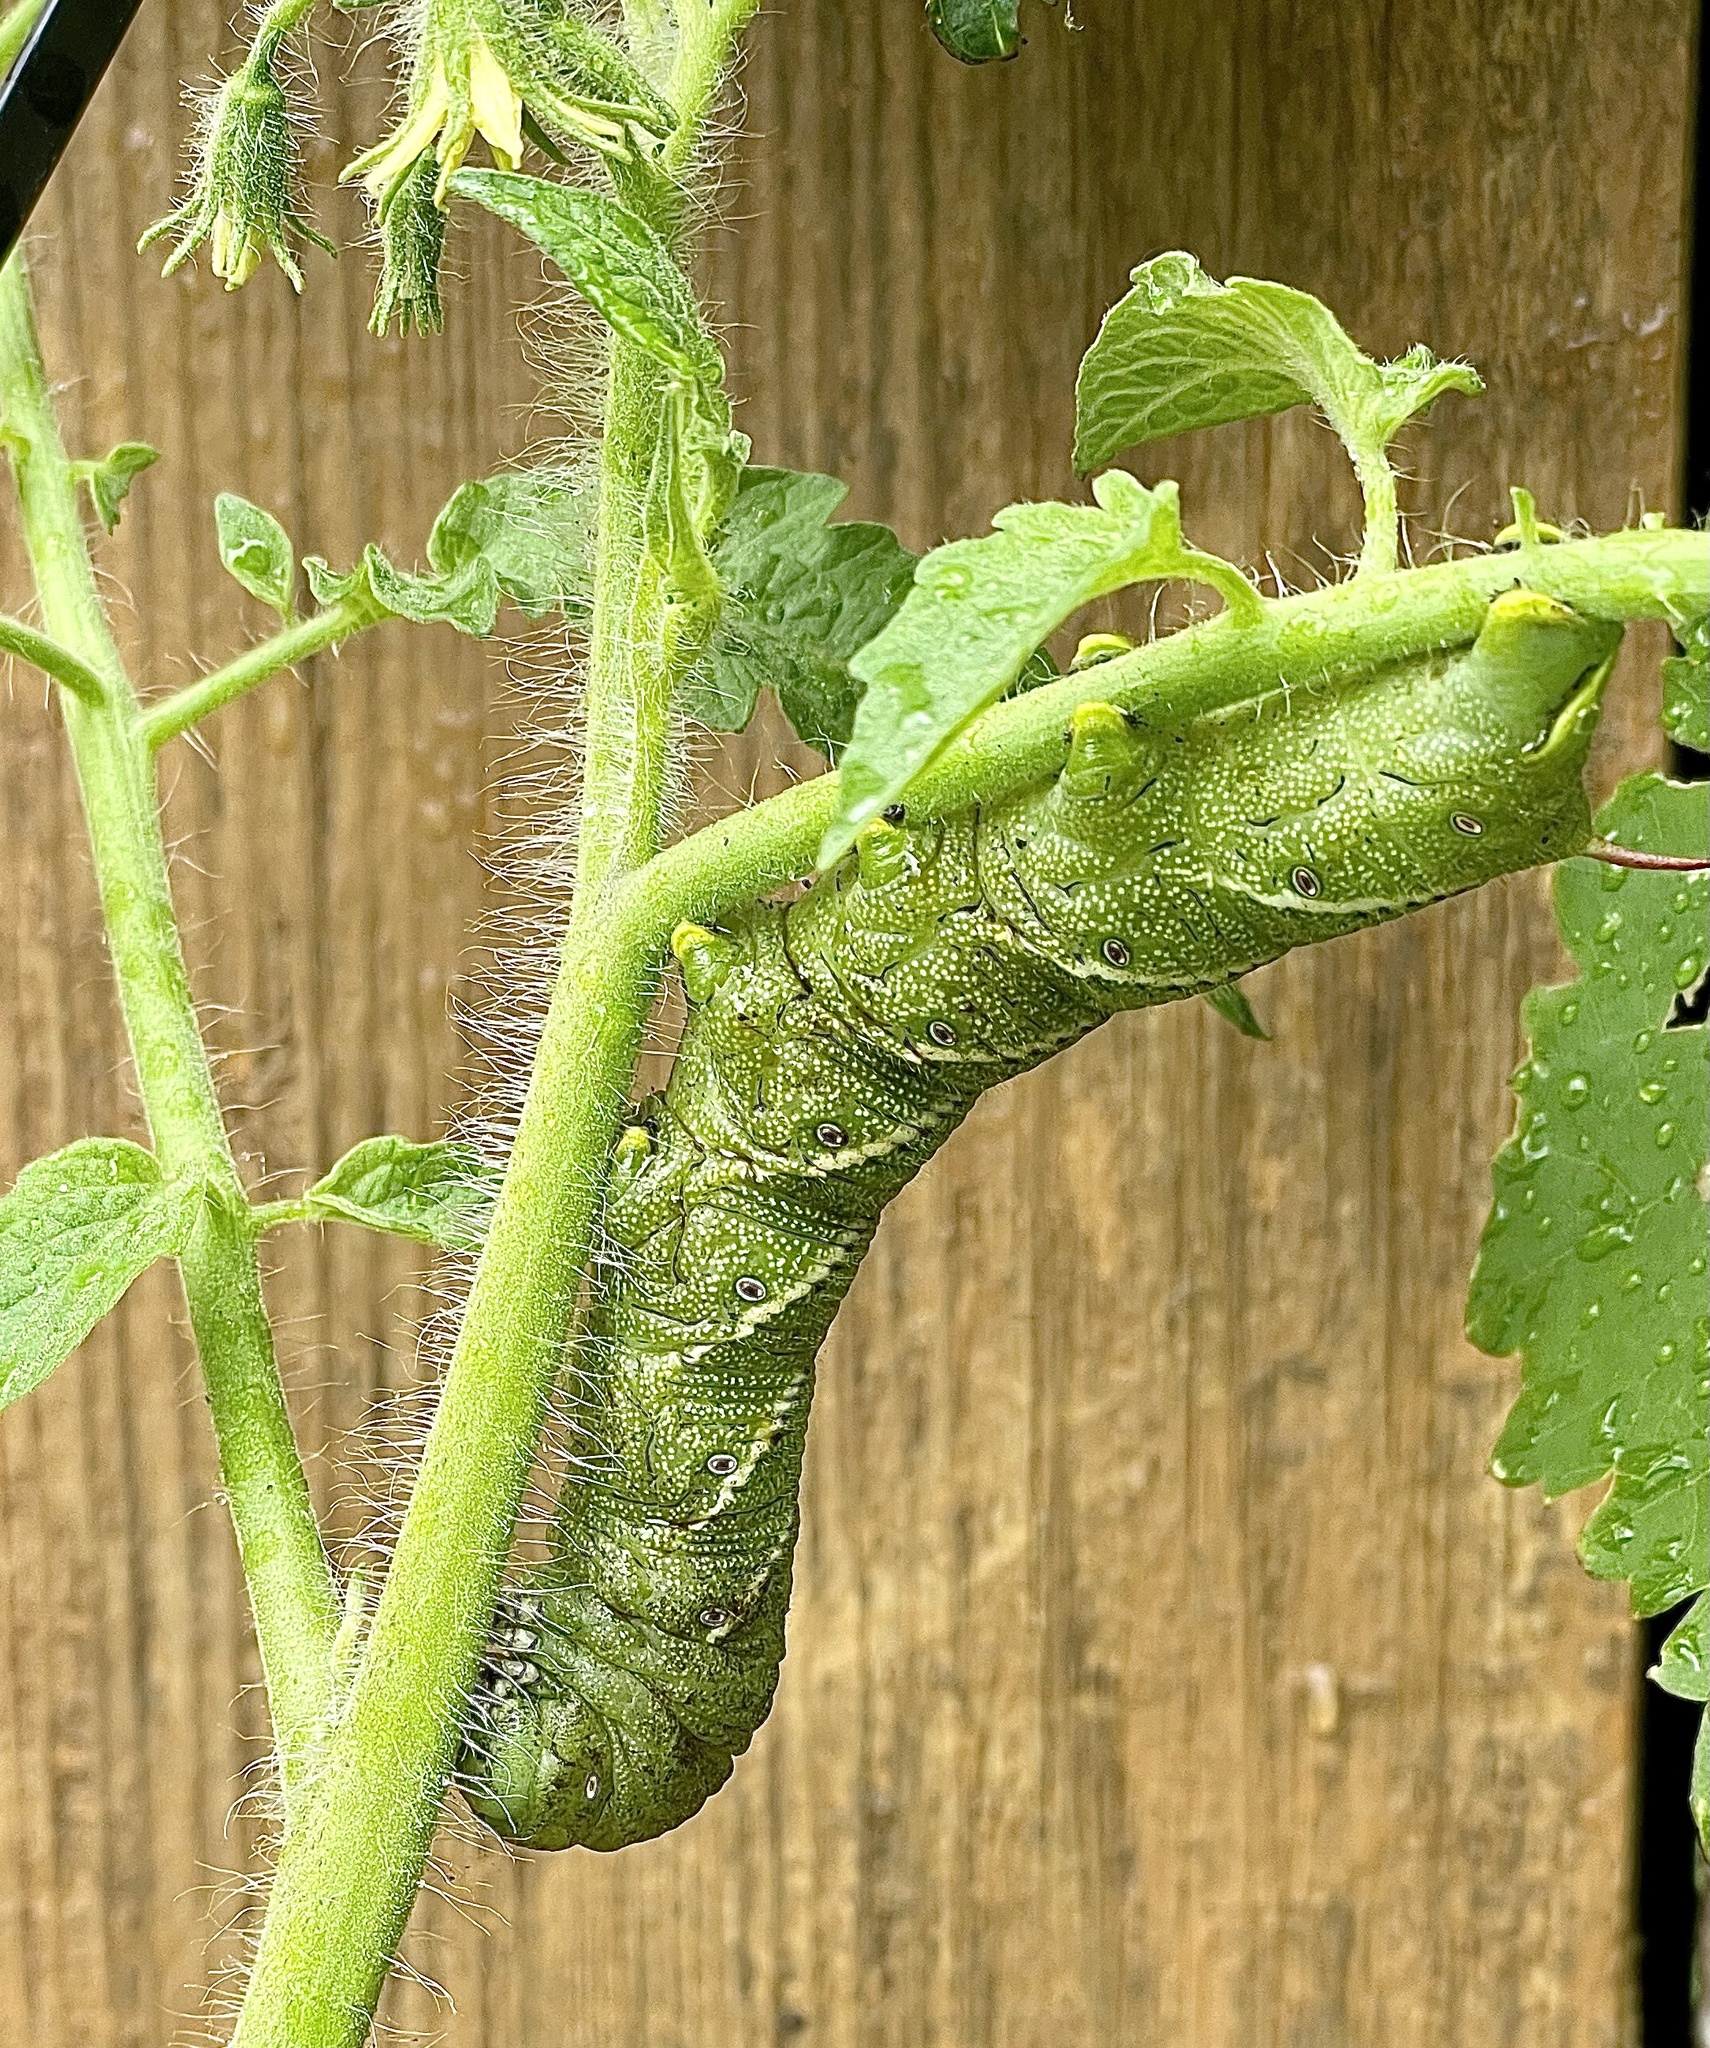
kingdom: Animalia
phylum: Arthropoda
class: Insecta
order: Lepidoptera
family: Sphingidae
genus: Manduca
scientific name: Manduca sexta
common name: Carolina sphinx
